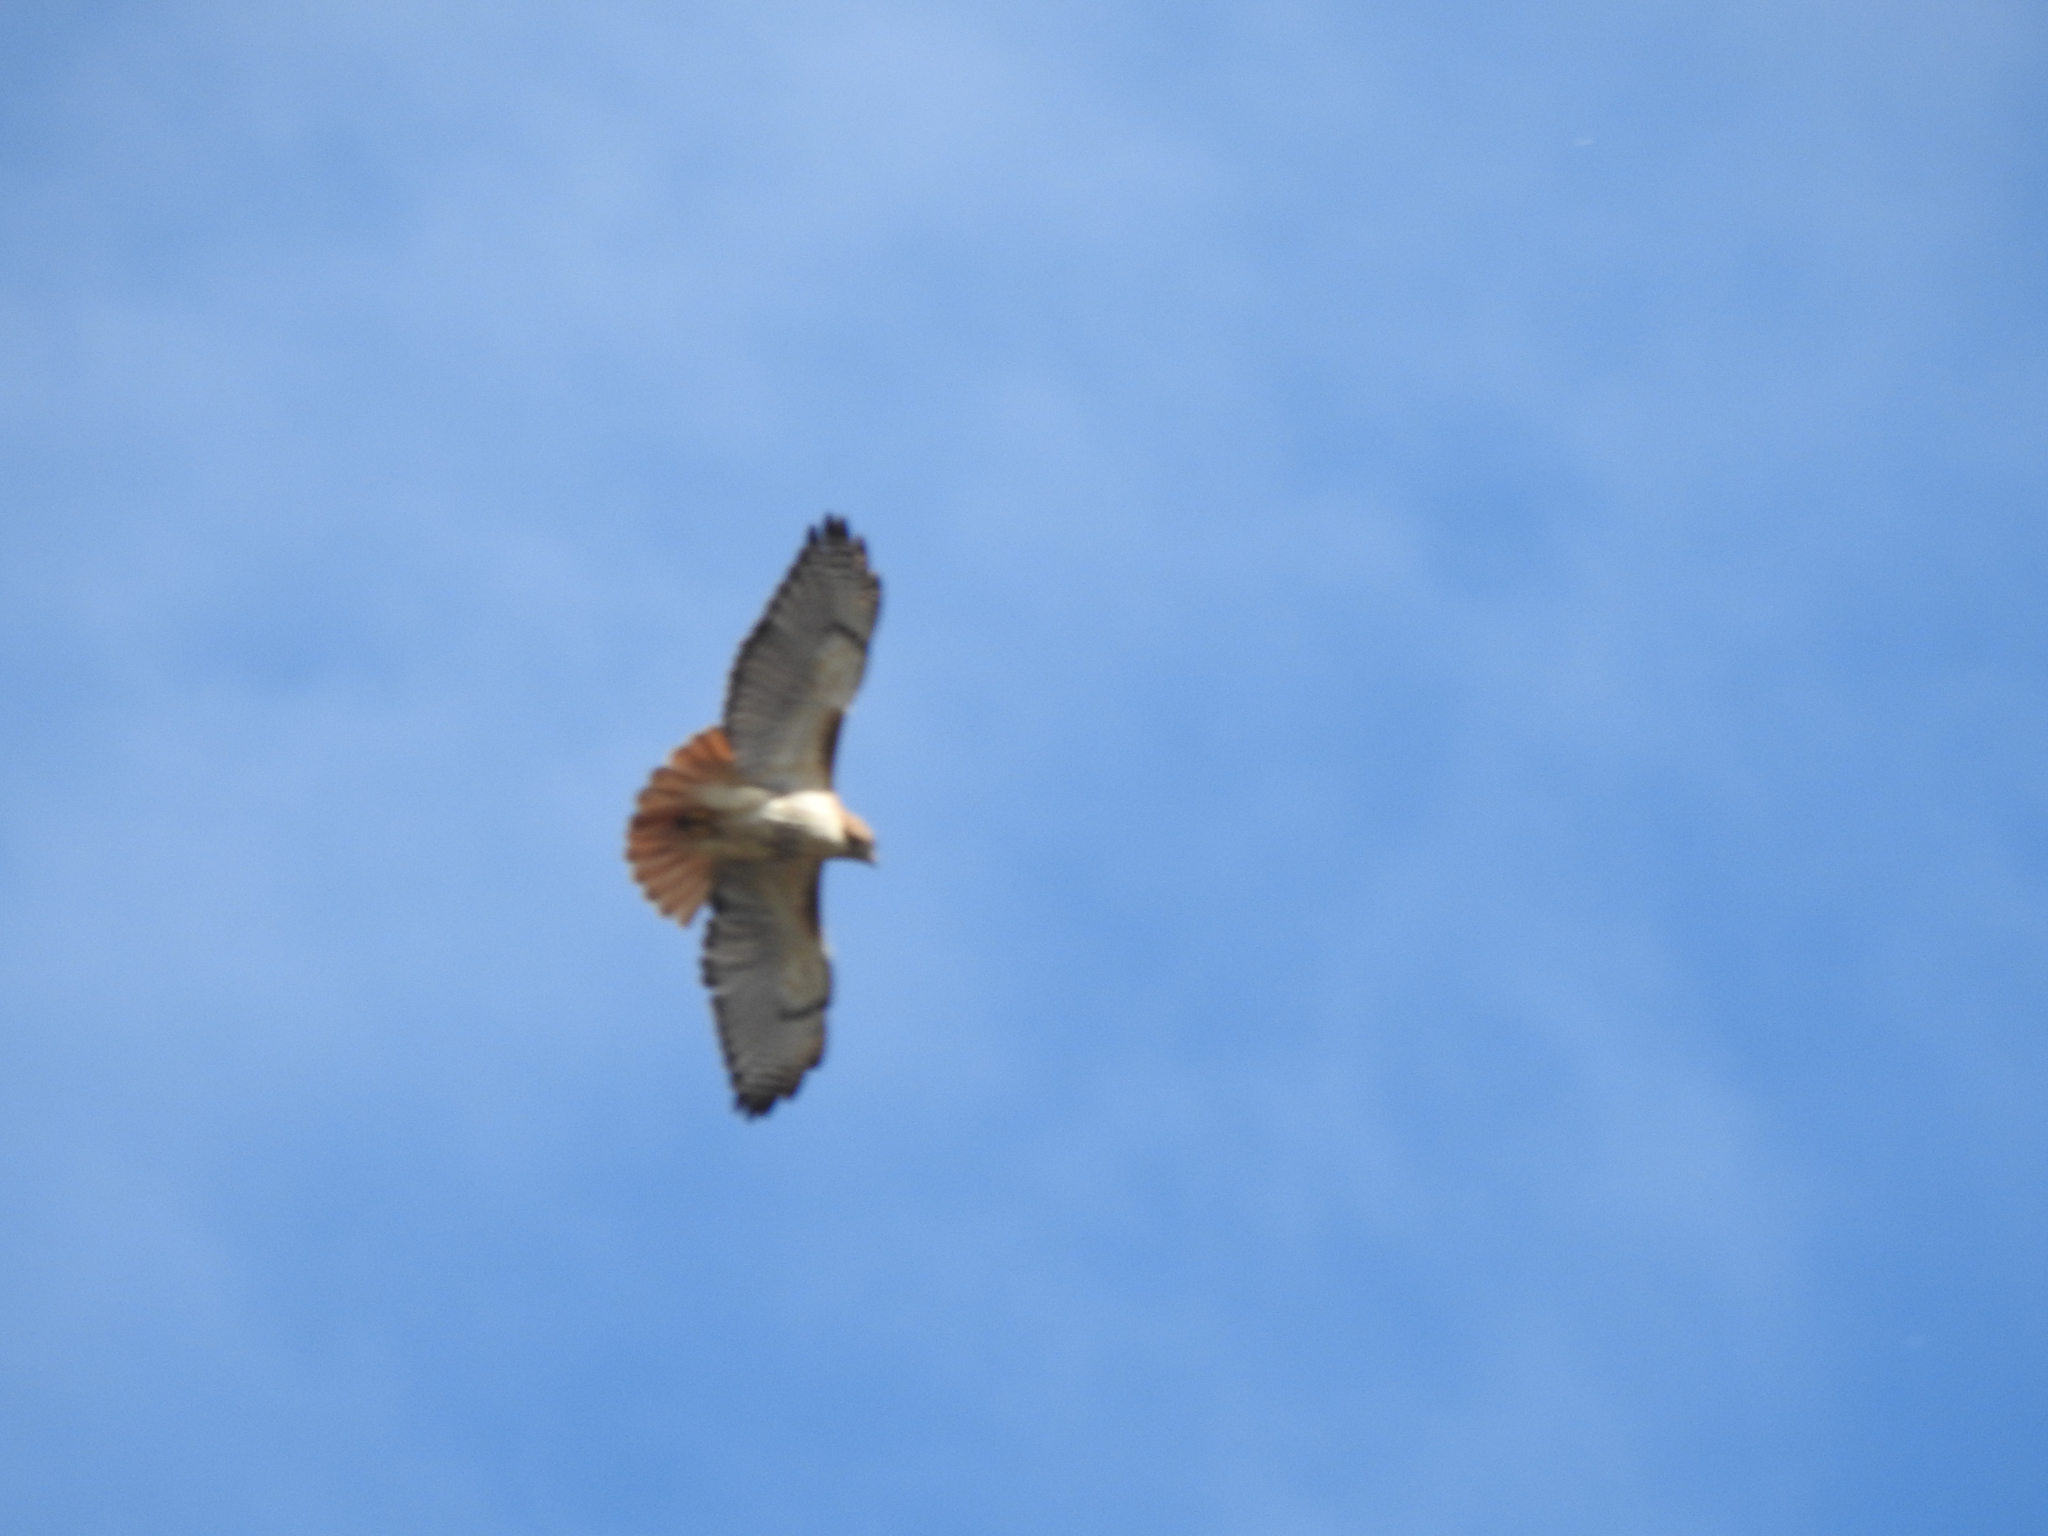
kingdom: Animalia
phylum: Chordata
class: Aves
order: Accipitriformes
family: Accipitridae
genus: Buteo
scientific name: Buteo jamaicensis
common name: Red-tailed hawk
